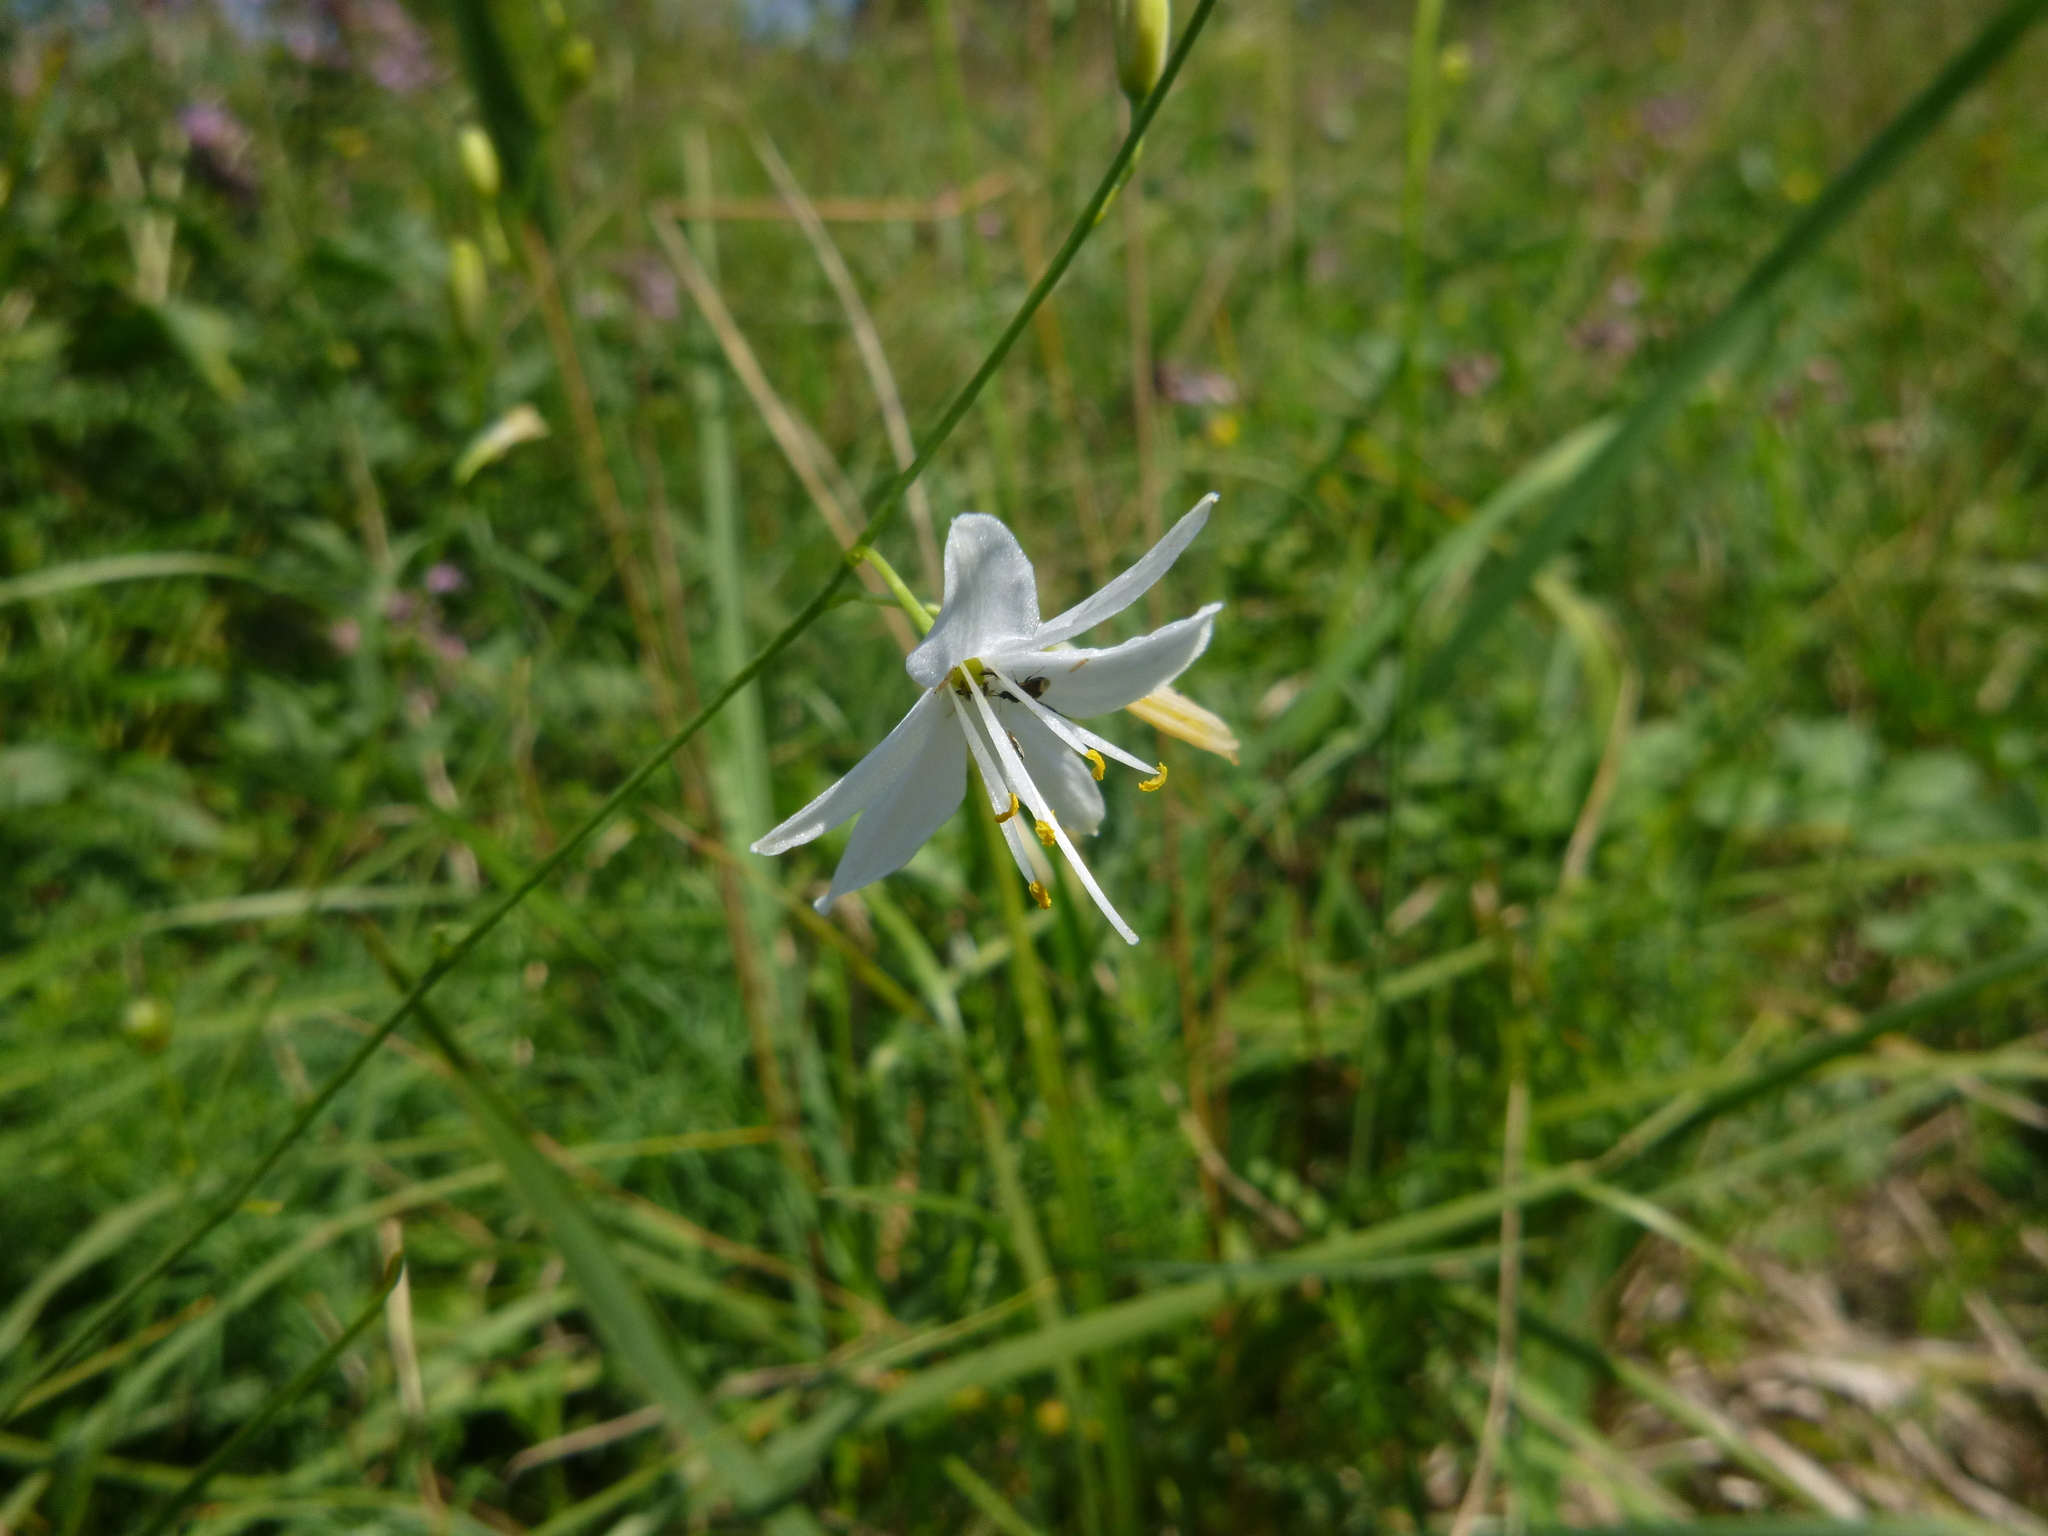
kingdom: Plantae
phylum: Tracheophyta
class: Liliopsida
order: Asparagales
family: Asparagaceae
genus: Anthericum
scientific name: Anthericum ramosum
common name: Branched st. bernard's-lily
